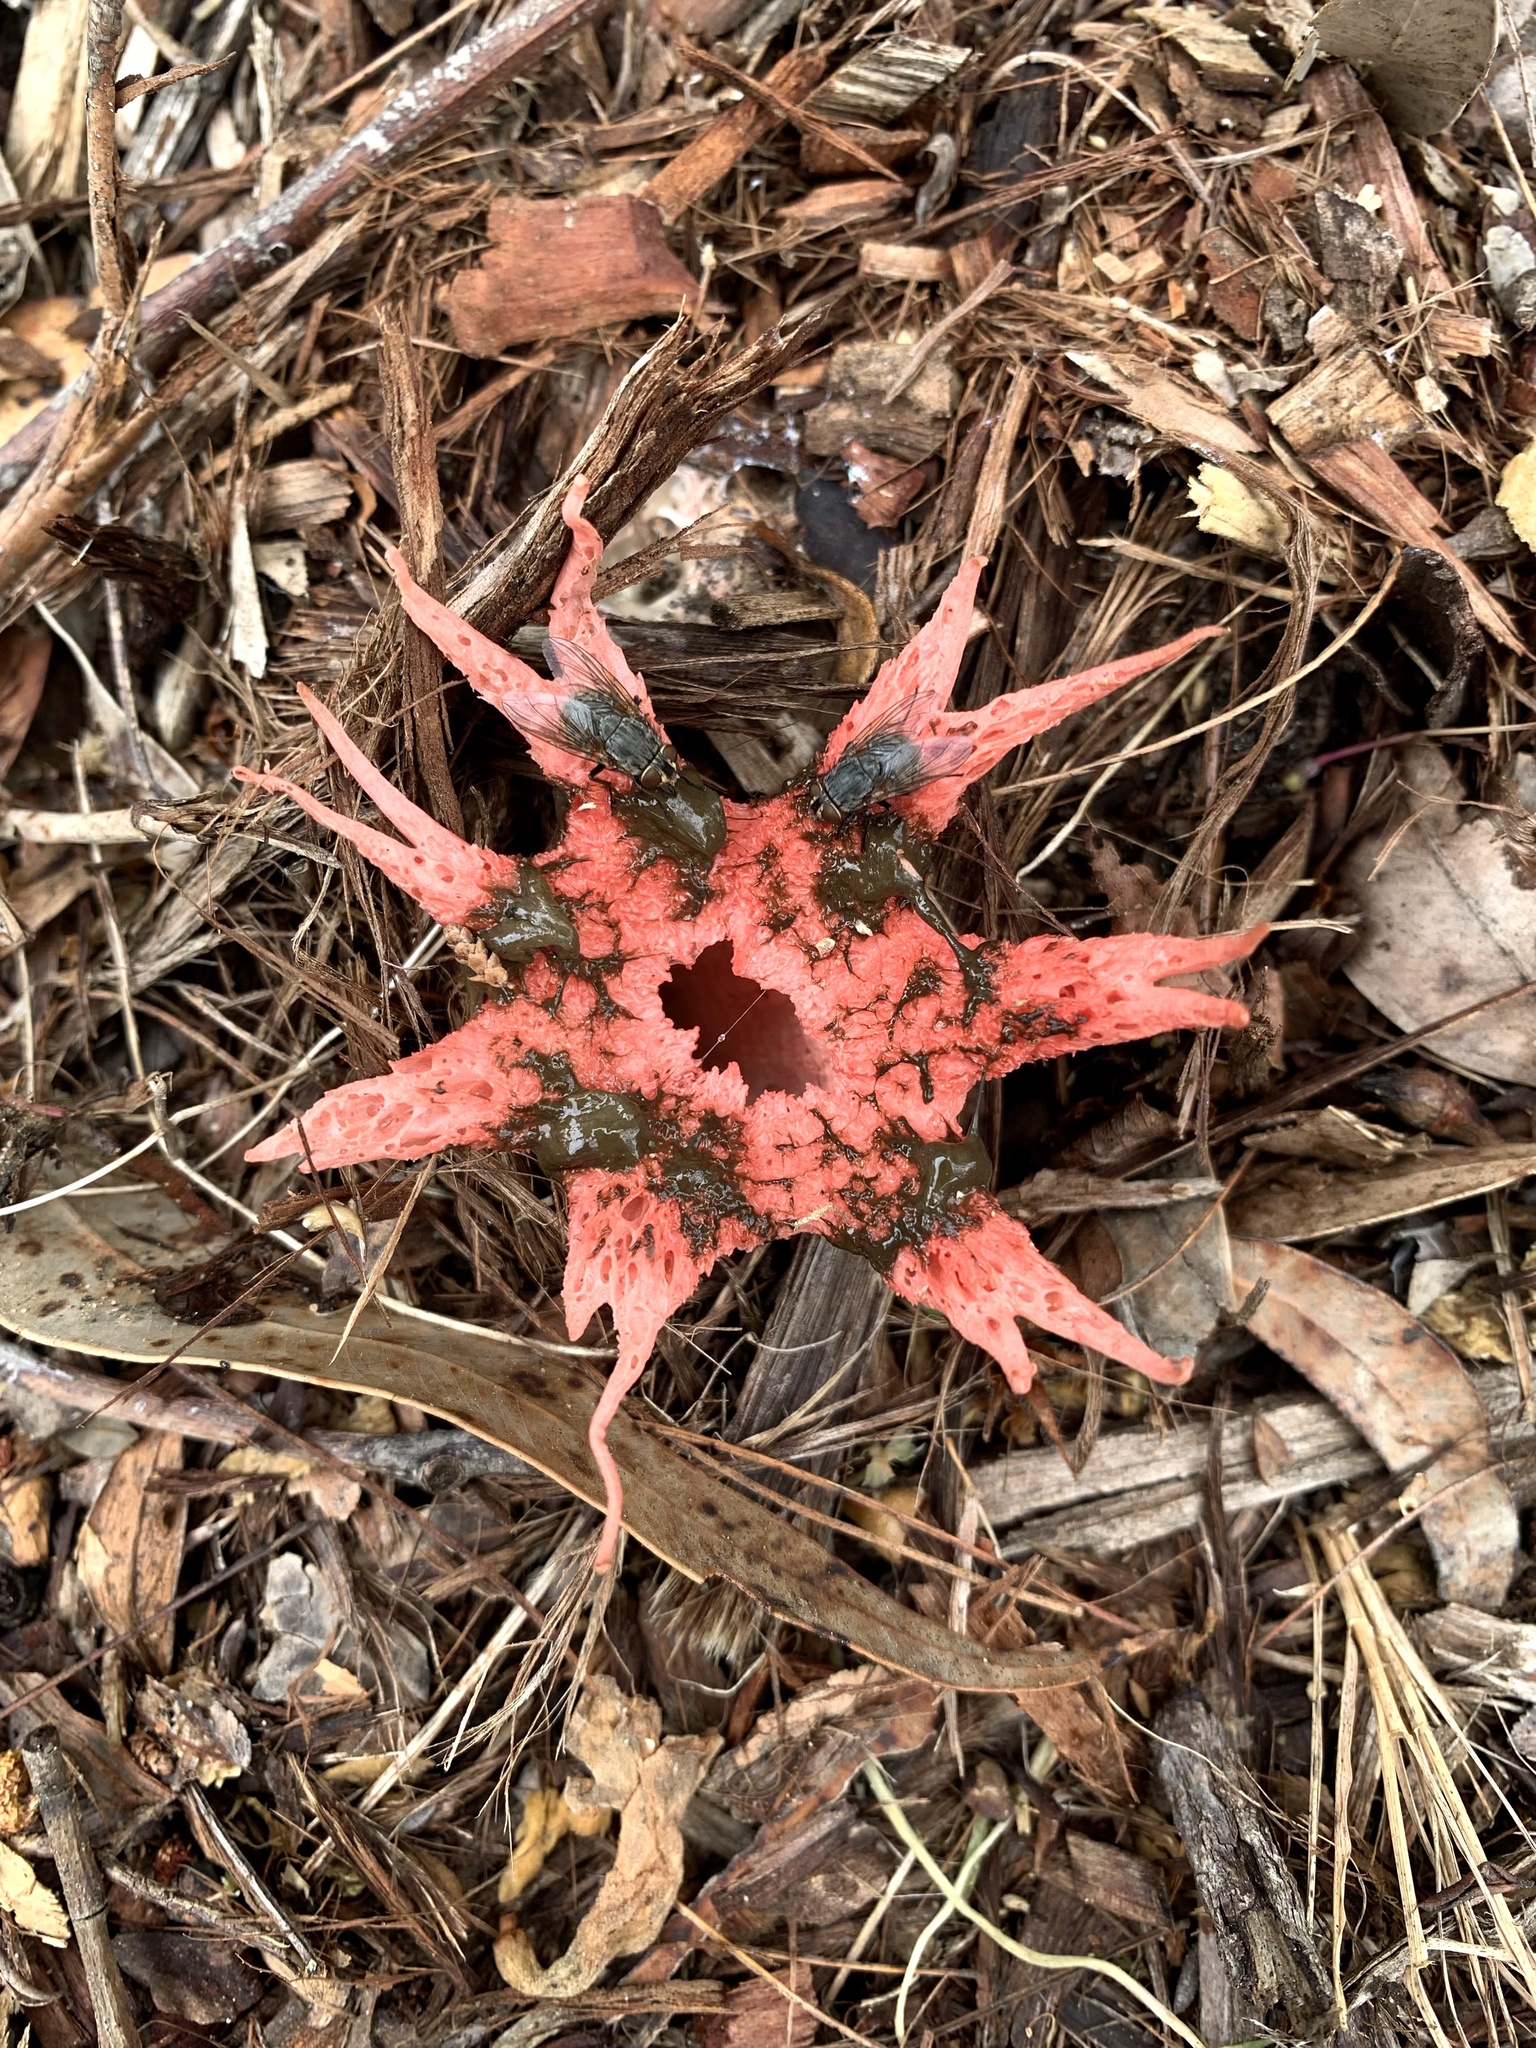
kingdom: Fungi
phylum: Basidiomycota
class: Agaricomycetes
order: Phallales
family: Phallaceae
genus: Aseroe
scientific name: Aseroe rubra
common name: Starfish fungus
